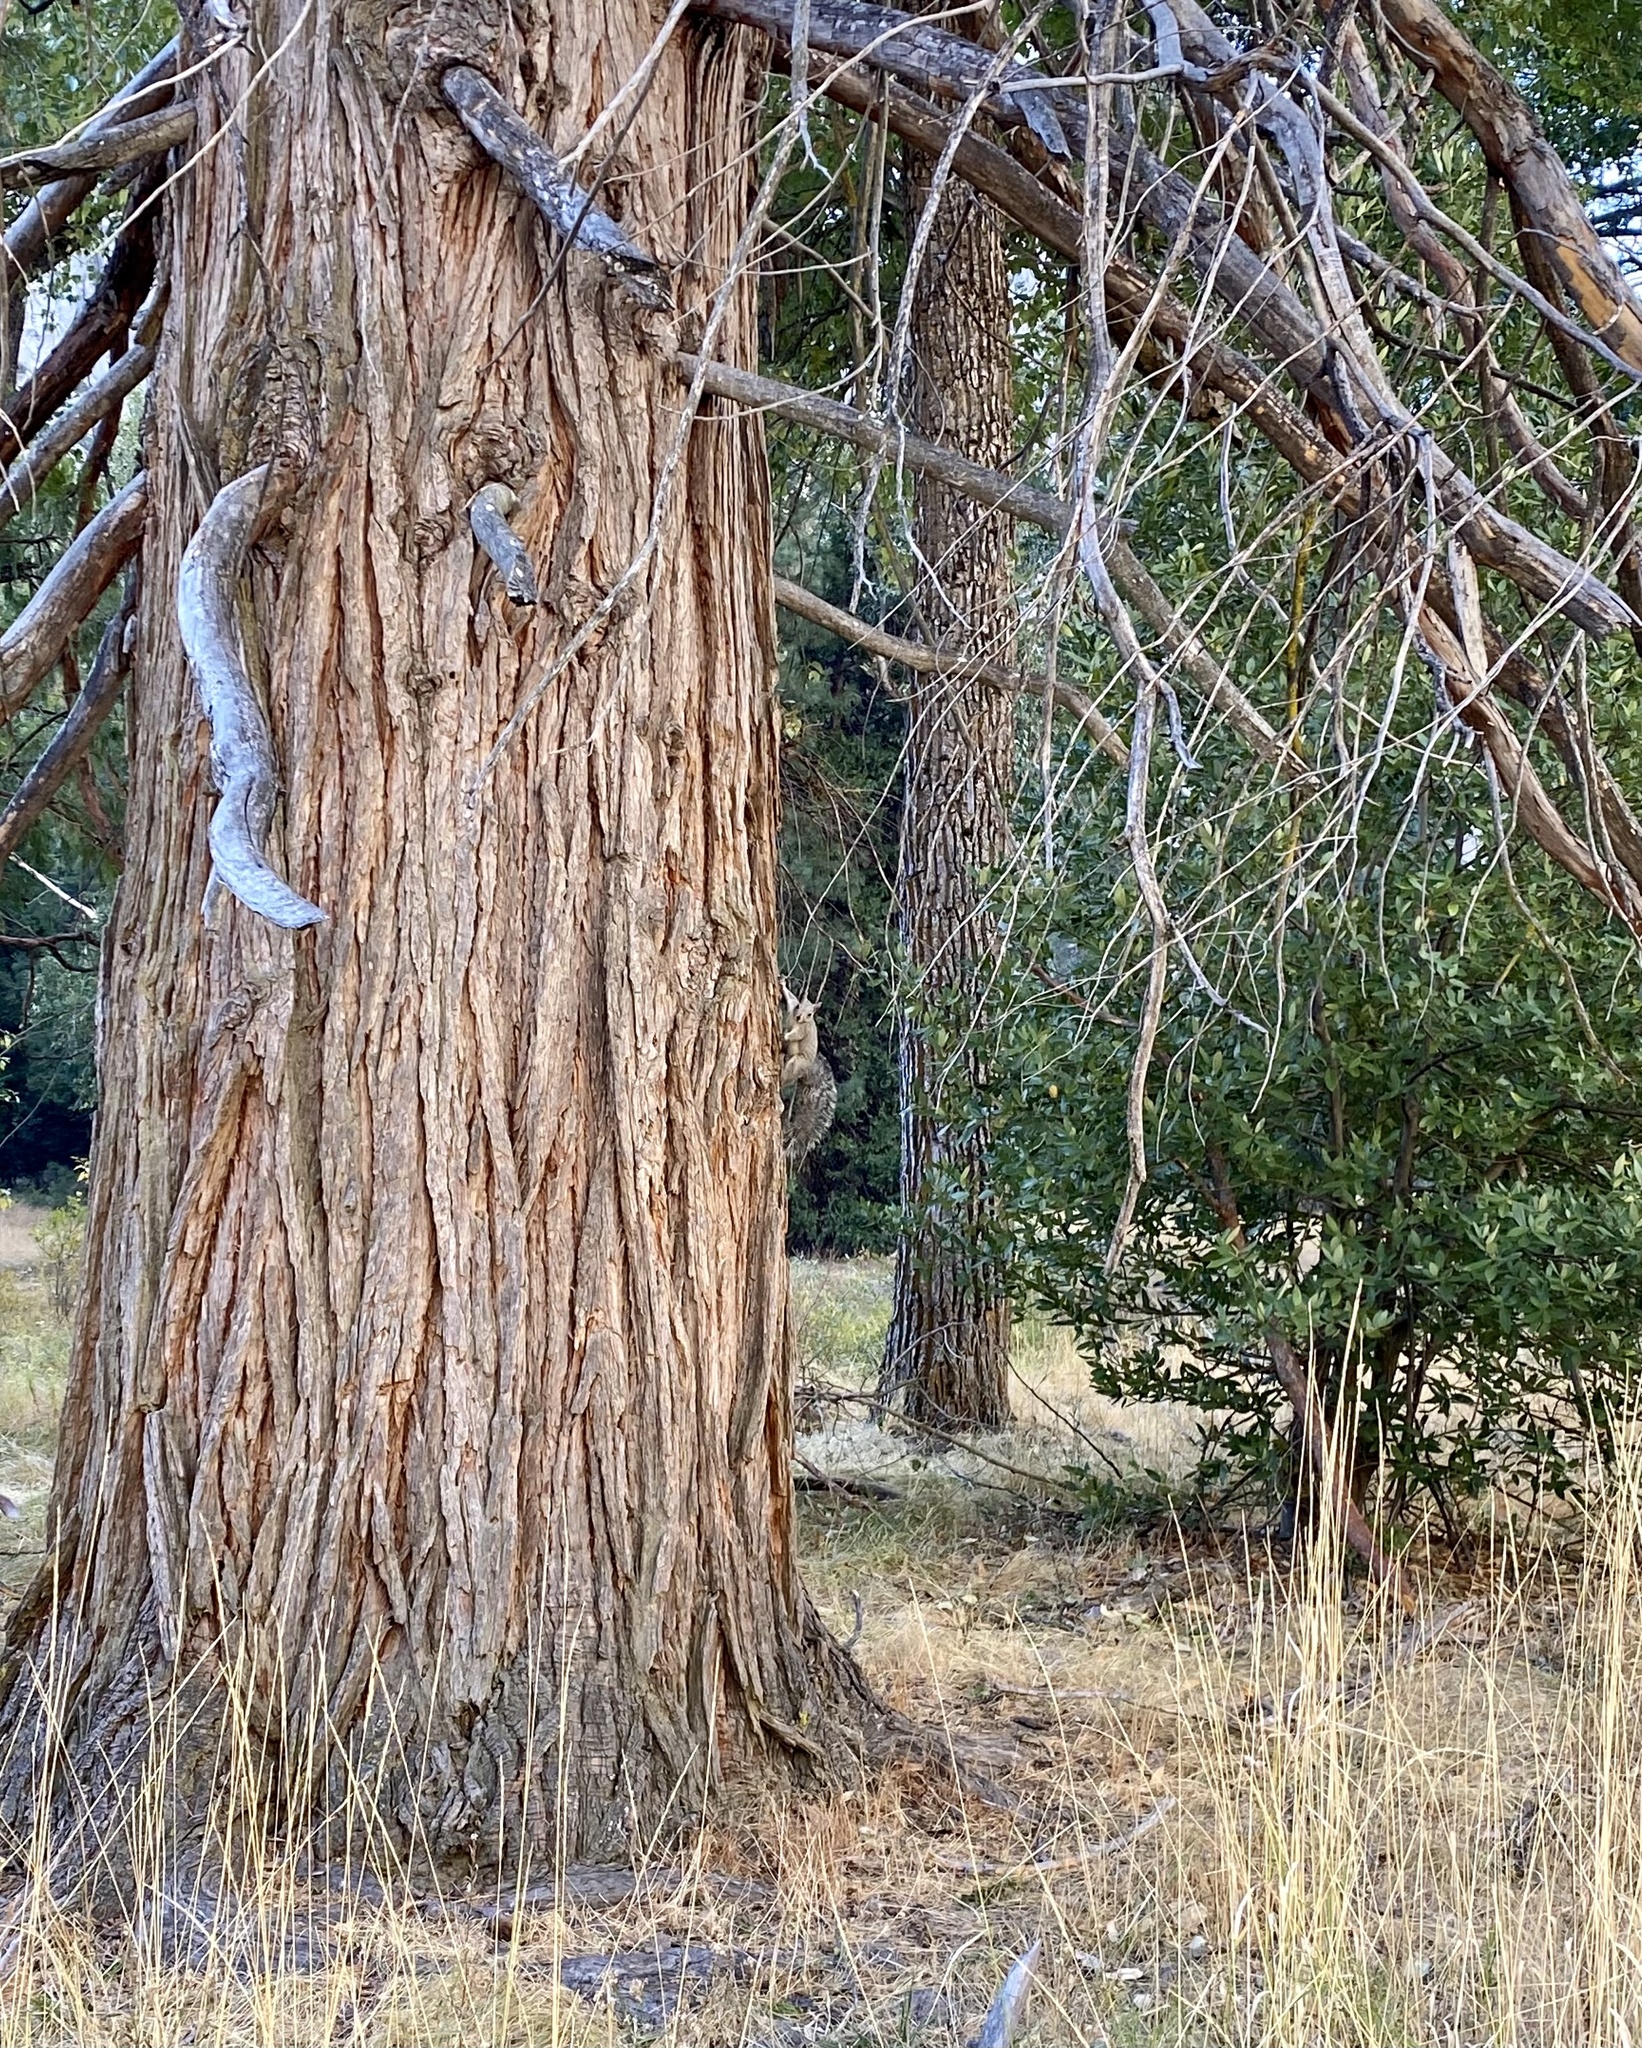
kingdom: Animalia
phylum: Chordata
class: Mammalia
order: Rodentia
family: Sciuridae
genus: Sciurus
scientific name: Sciurus griseus
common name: Western gray squirrel
